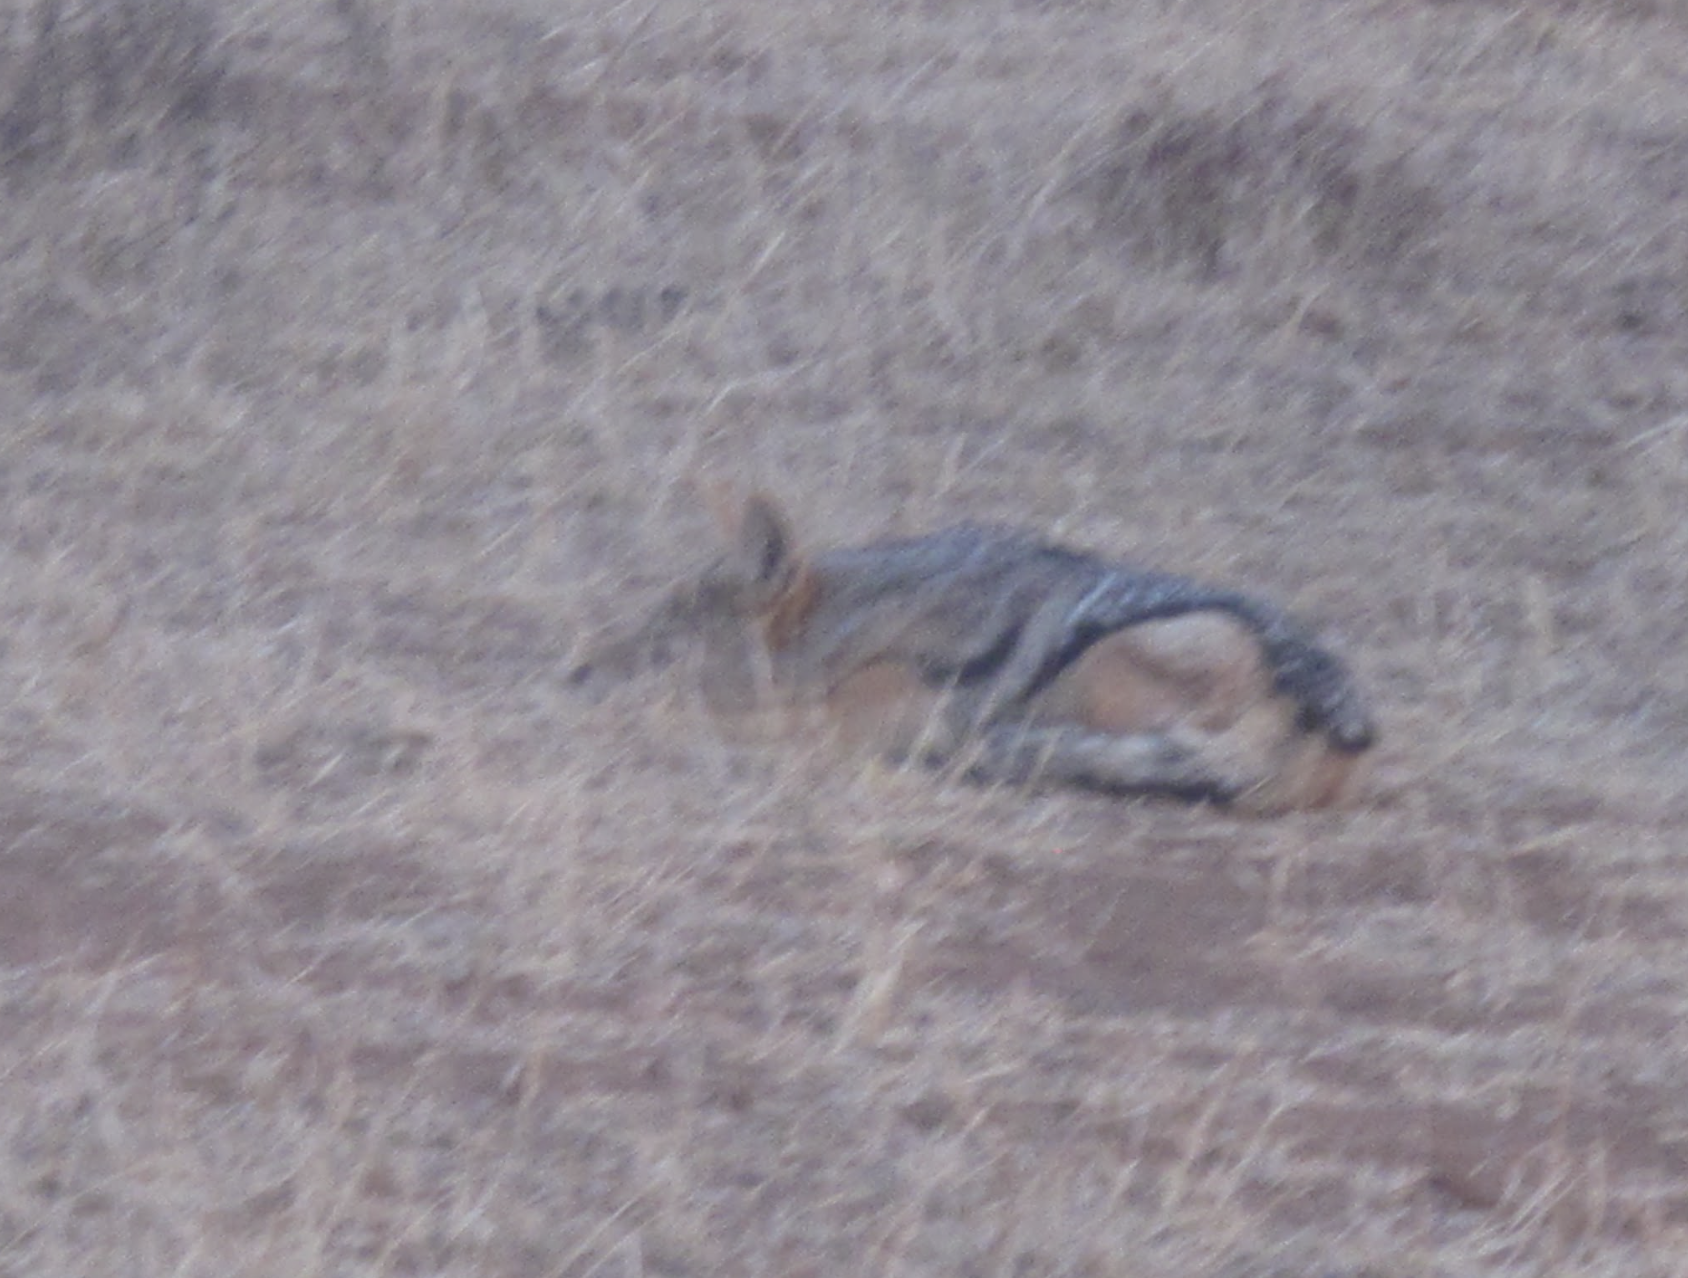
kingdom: Animalia
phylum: Chordata
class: Mammalia
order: Carnivora
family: Canidae
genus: Lupulella
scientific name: Lupulella
